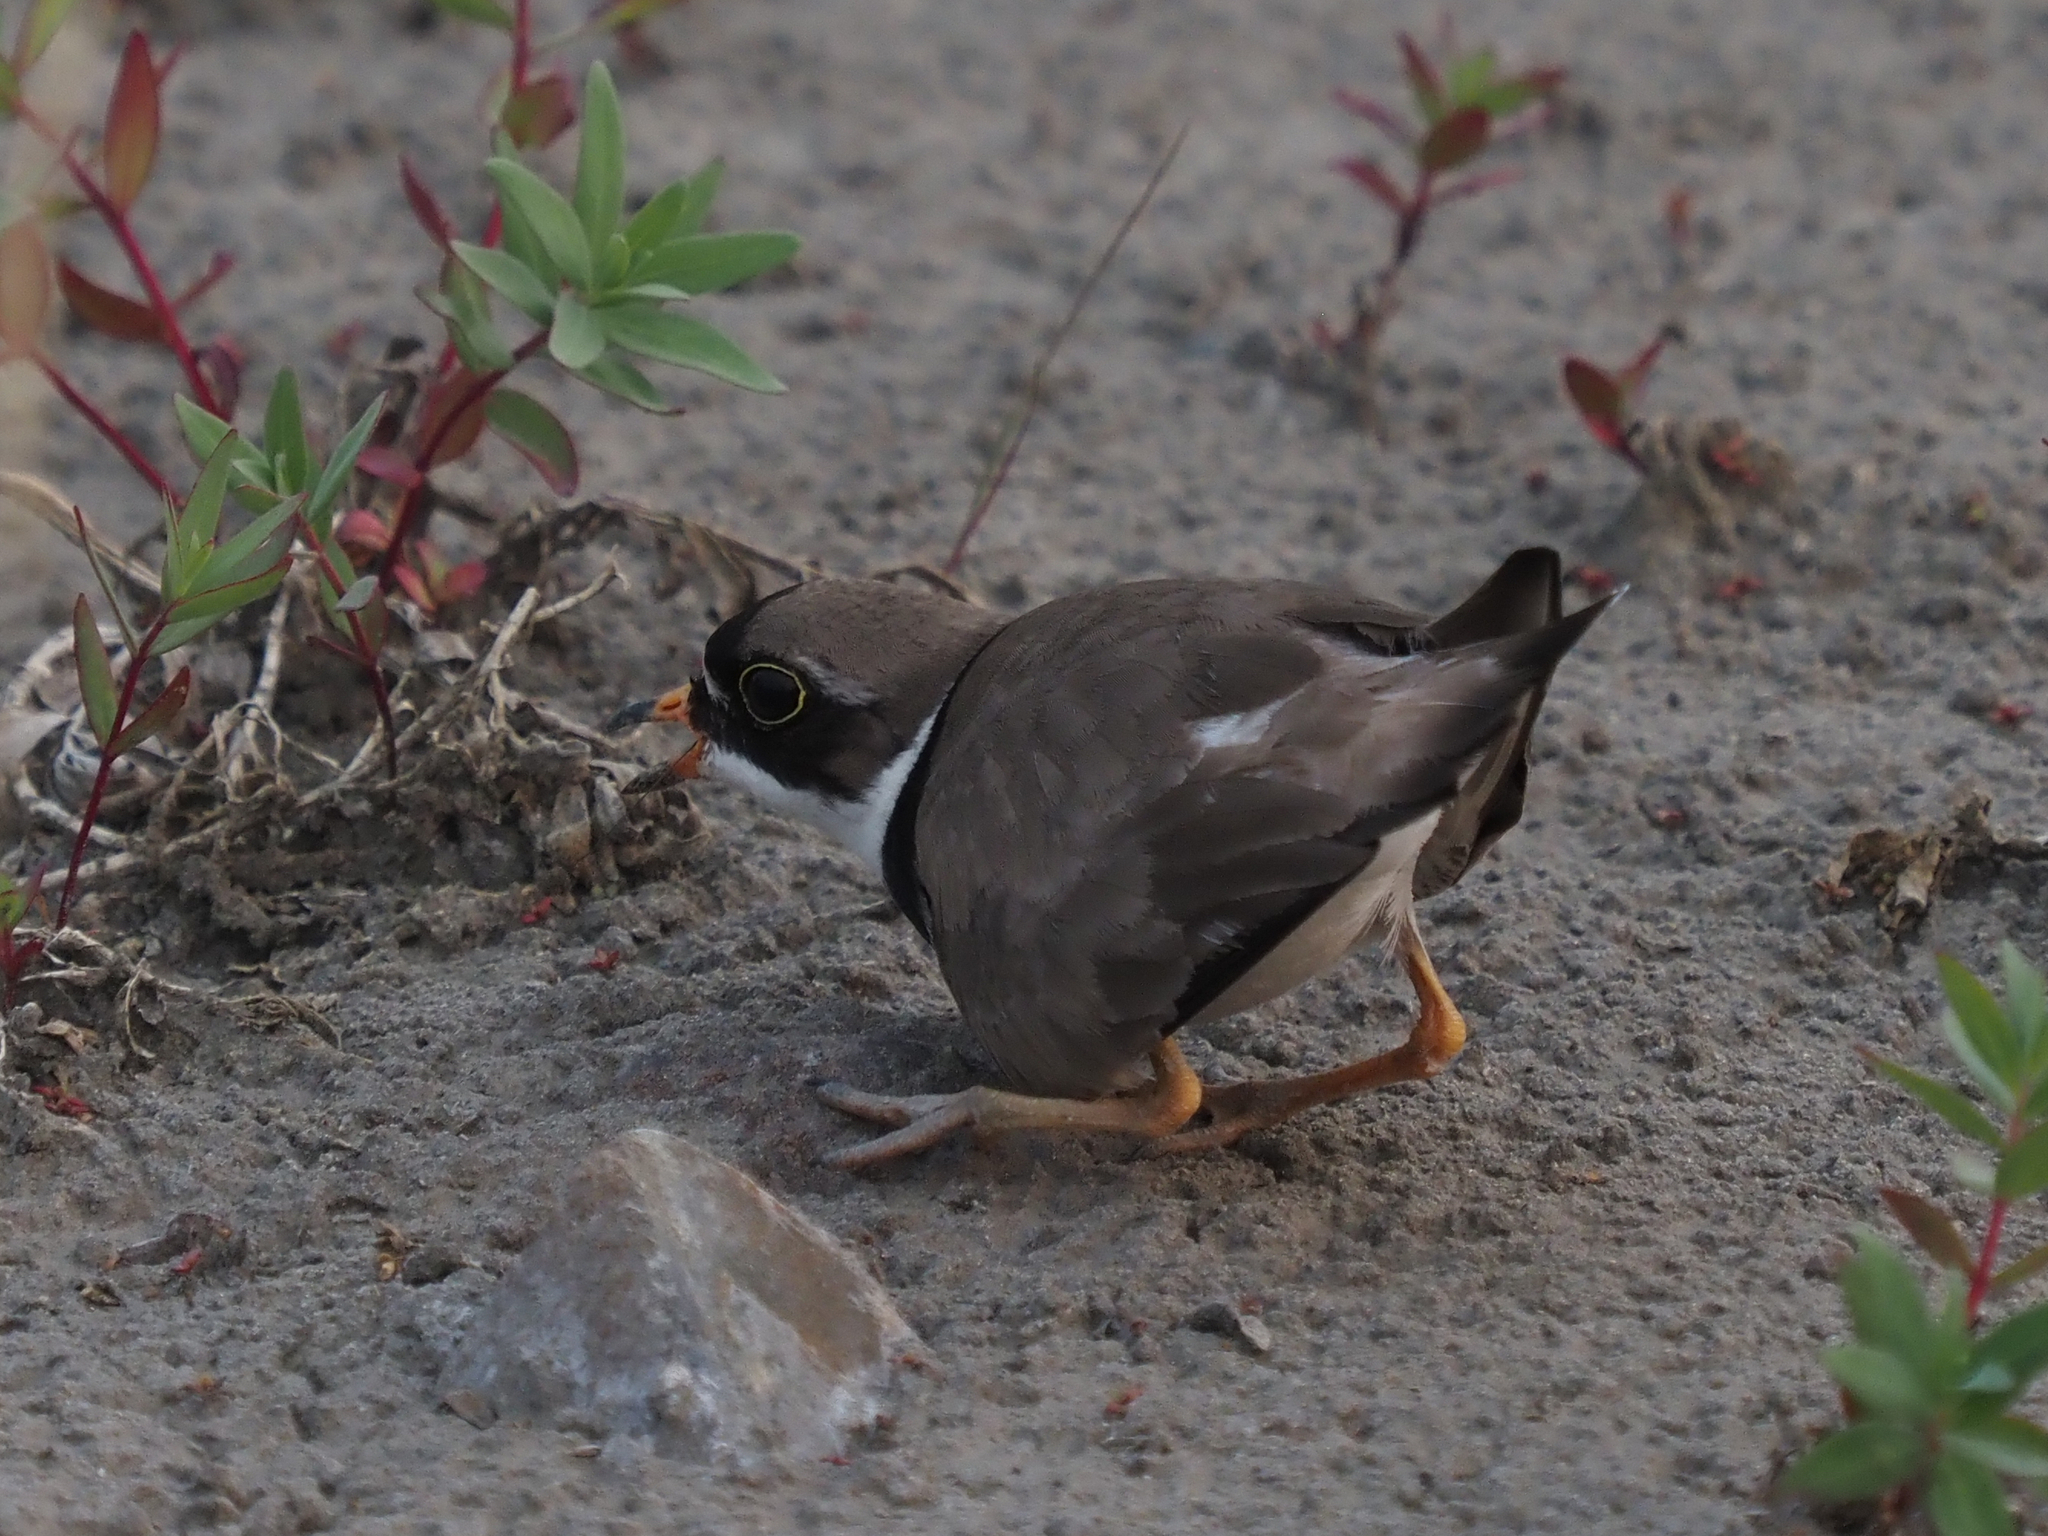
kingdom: Animalia
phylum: Chordata
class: Aves
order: Charadriiformes
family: Charadriidae
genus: Charadrius
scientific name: Charadrius semipalmatus
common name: Semipalmated plover
